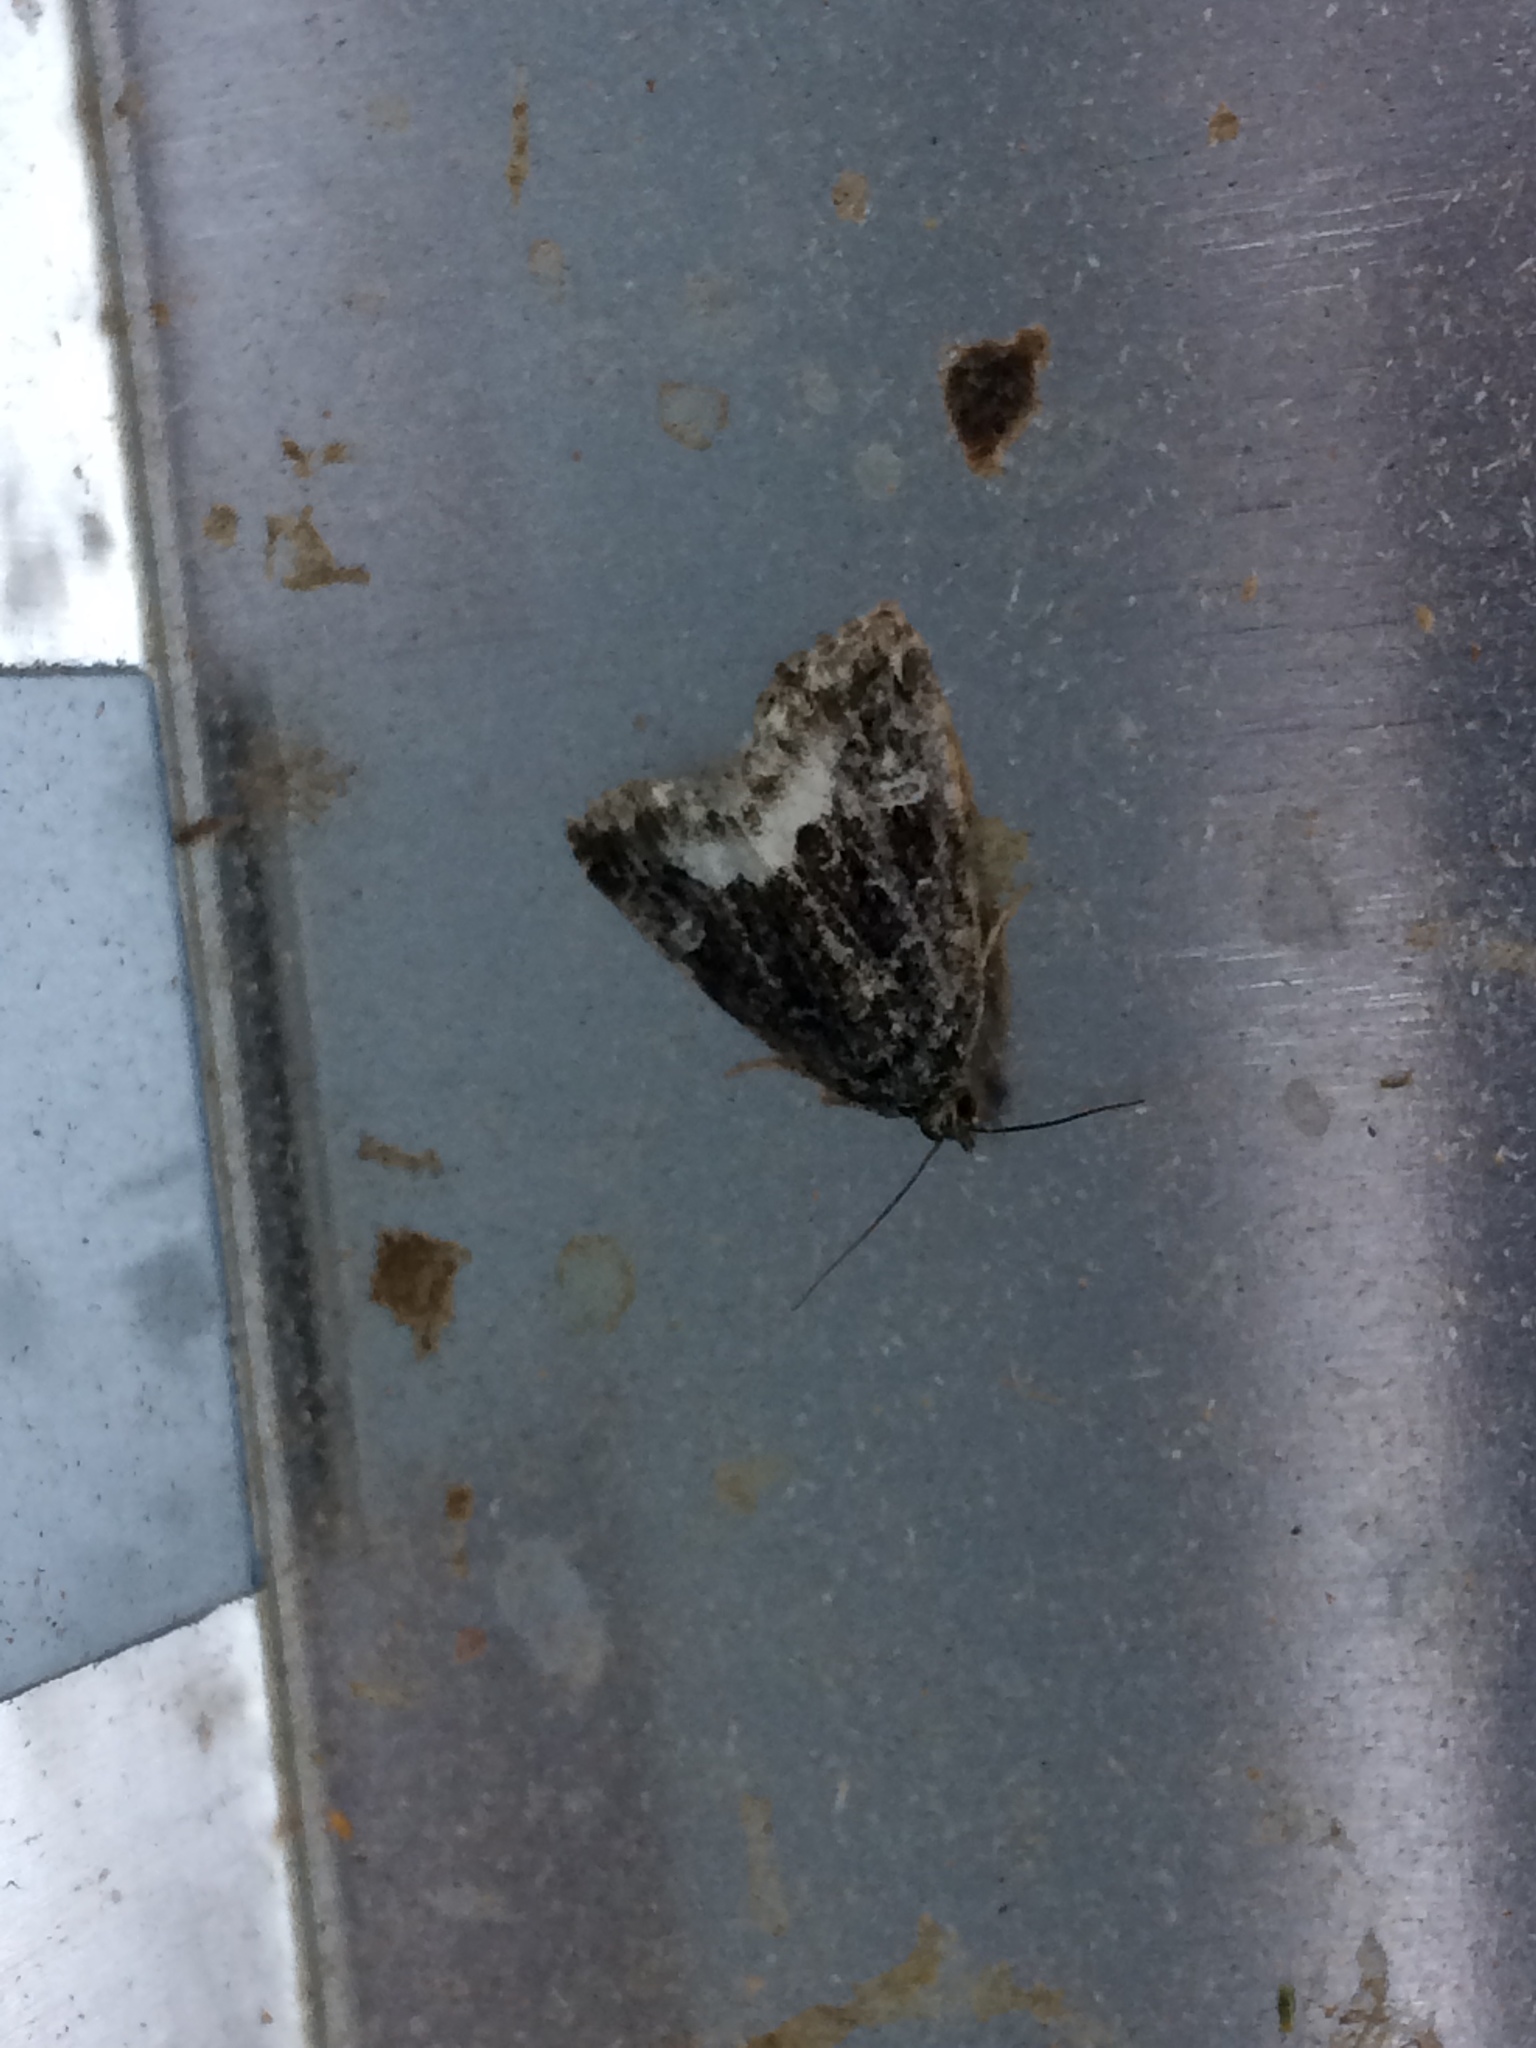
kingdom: Animalia
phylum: Arthropoda
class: Insecta
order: Lepidoptera
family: Noctuidae
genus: Deltote
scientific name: Deltote pygarga
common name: Marbled white spot
